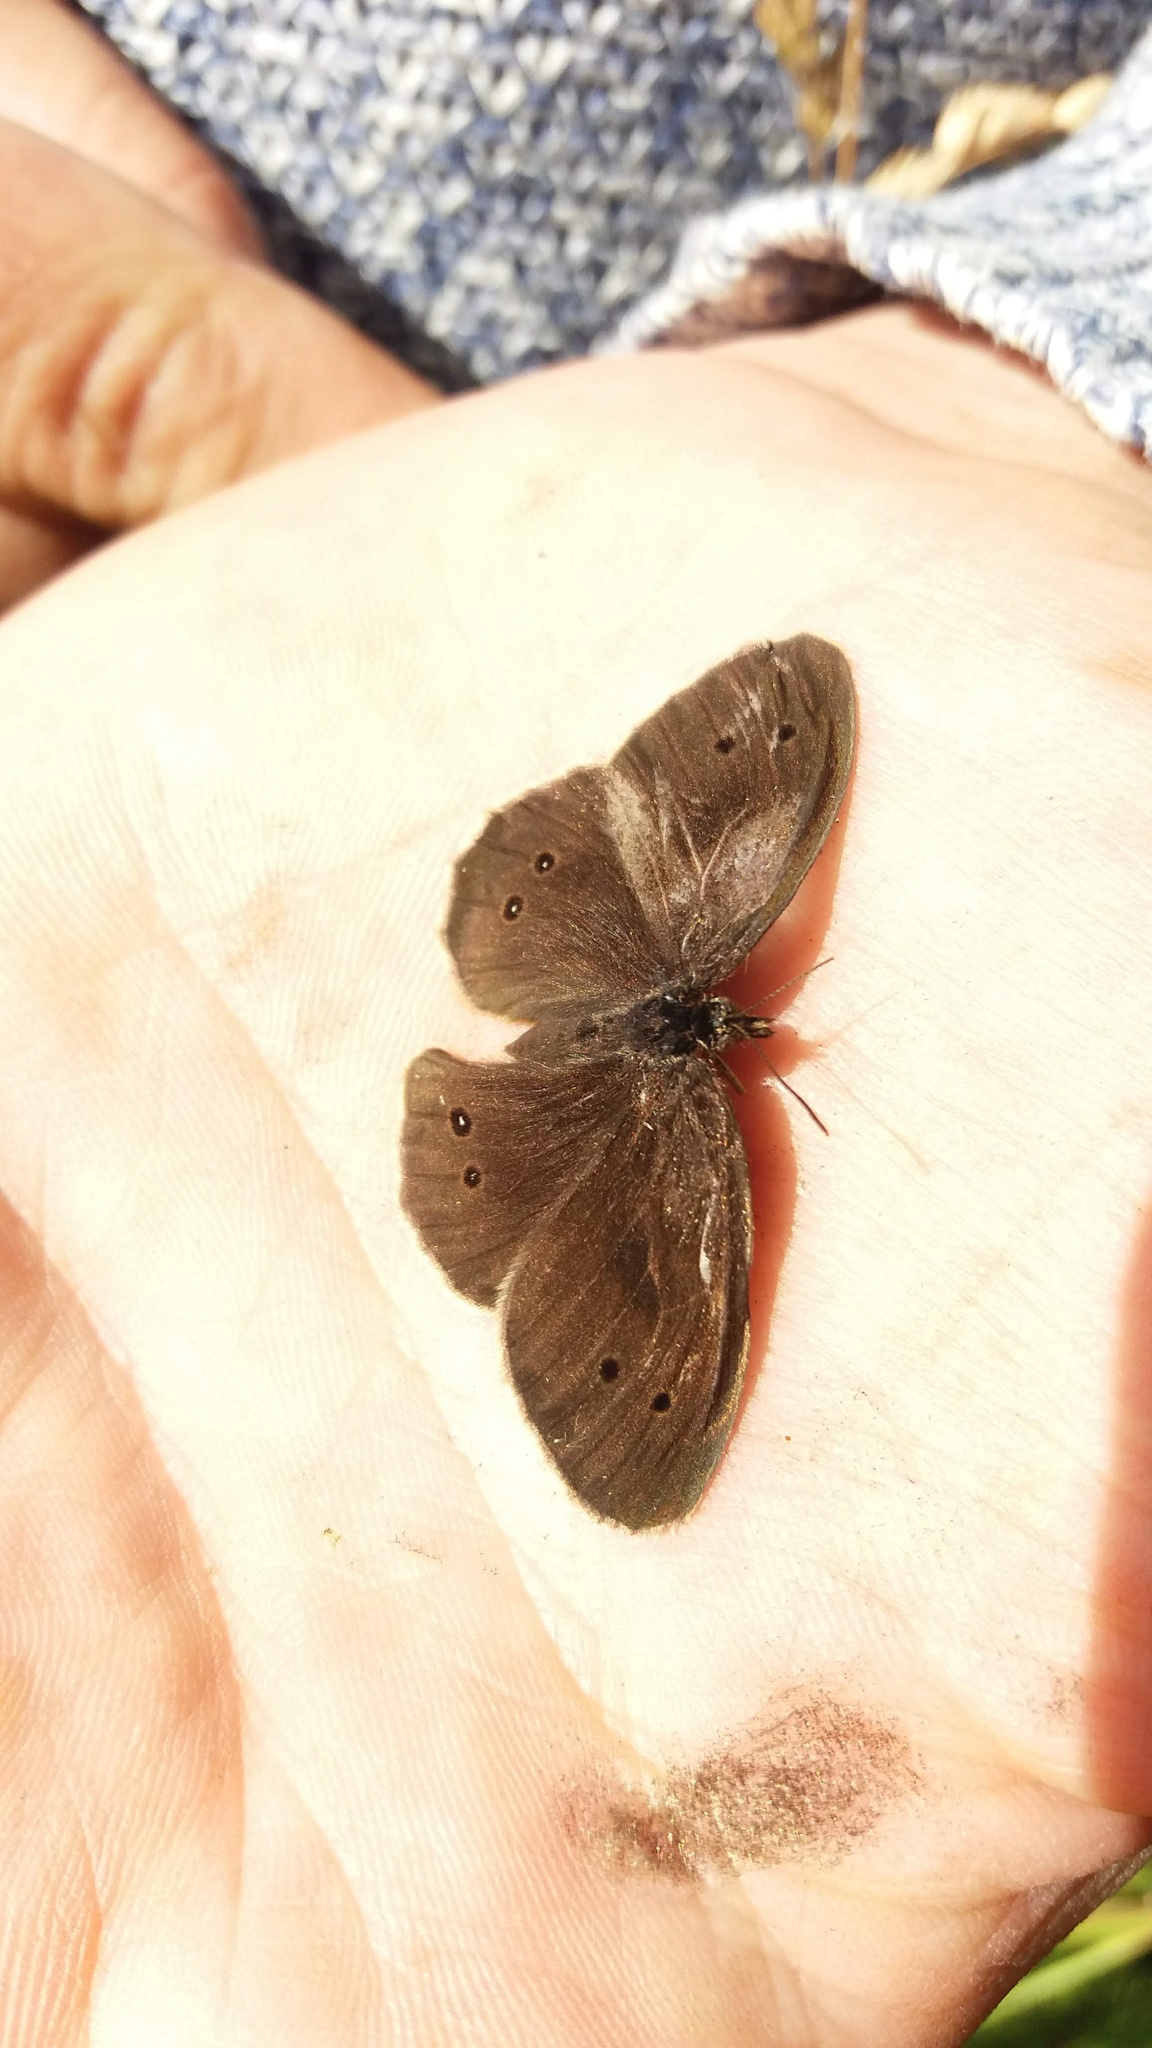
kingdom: Animalia
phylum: Arthropoda
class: Insecta
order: Lepidoptera
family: Nymphalidae
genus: Aphantopus
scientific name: Aphantopus hyperantus
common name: Ringlet
